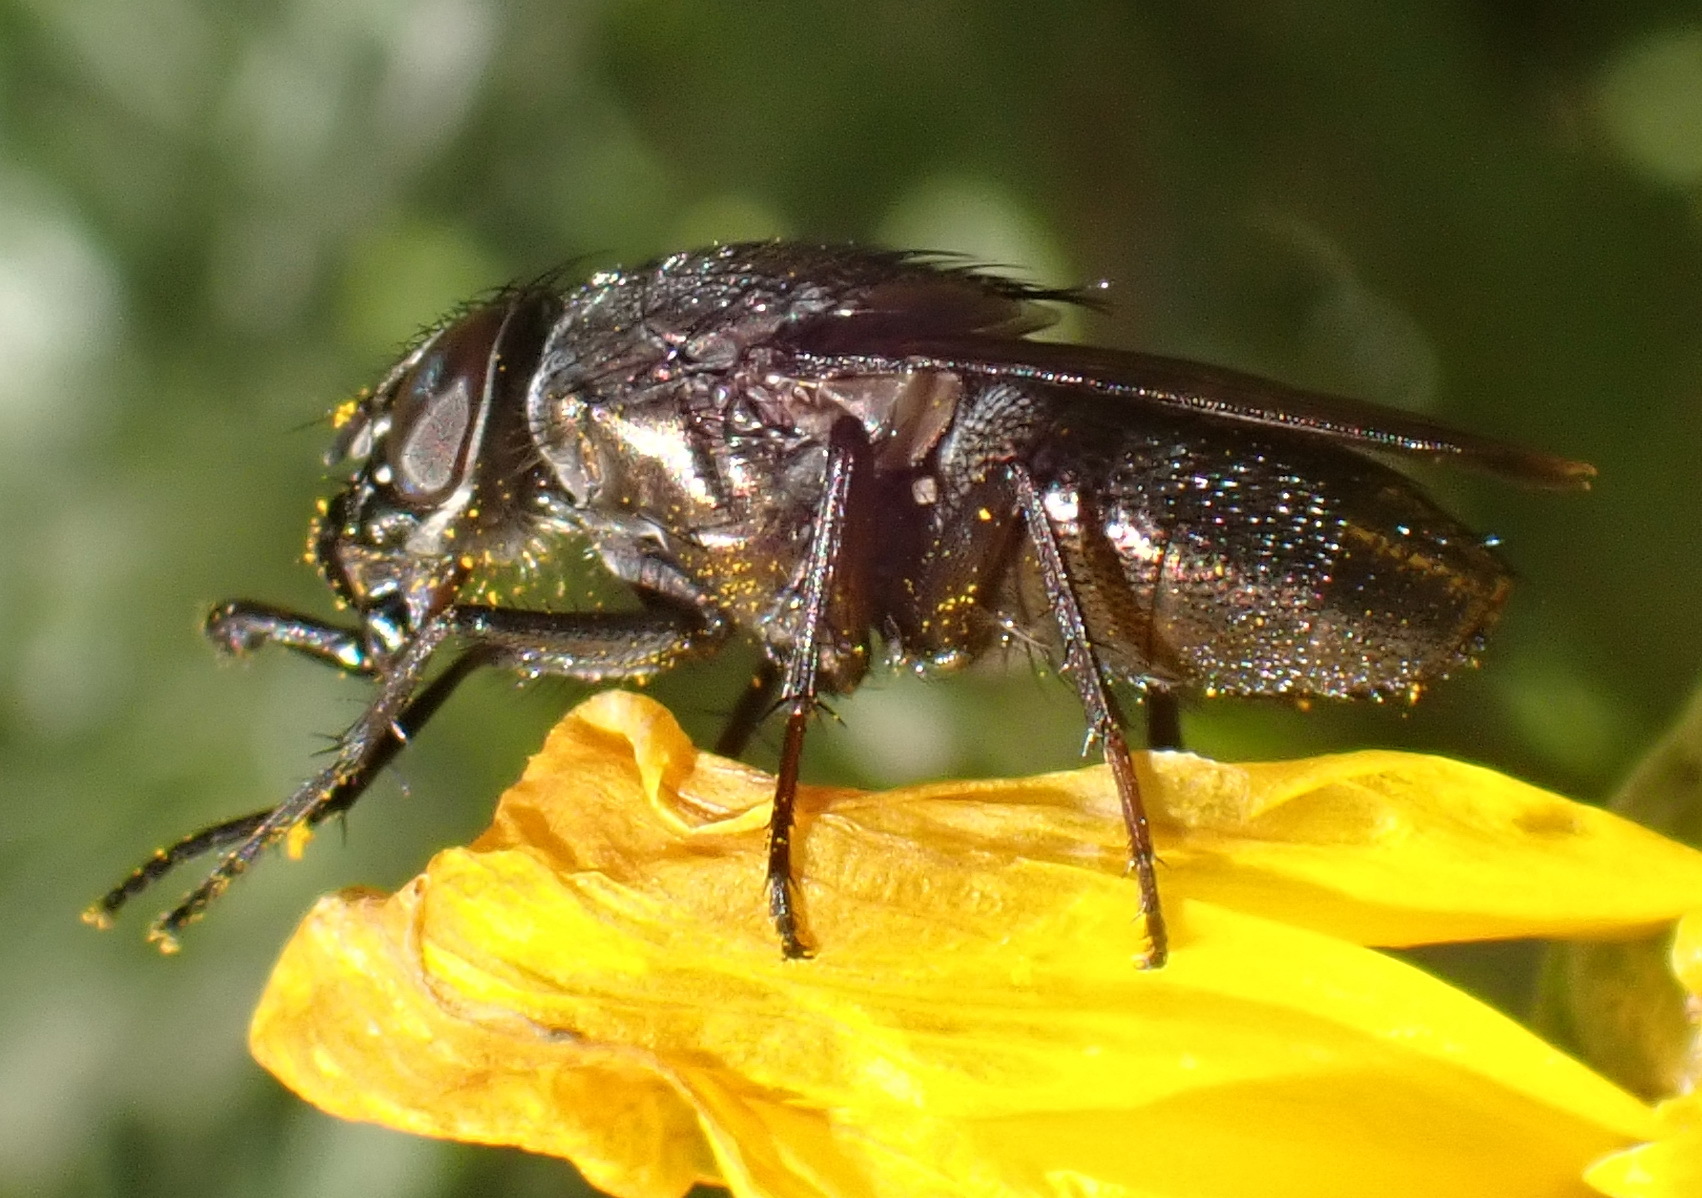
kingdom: Animalia
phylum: Arthropoda
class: Insecta
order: Diptera
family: Calliphoridae
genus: Cosmina
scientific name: Cosmina fuscipennis
